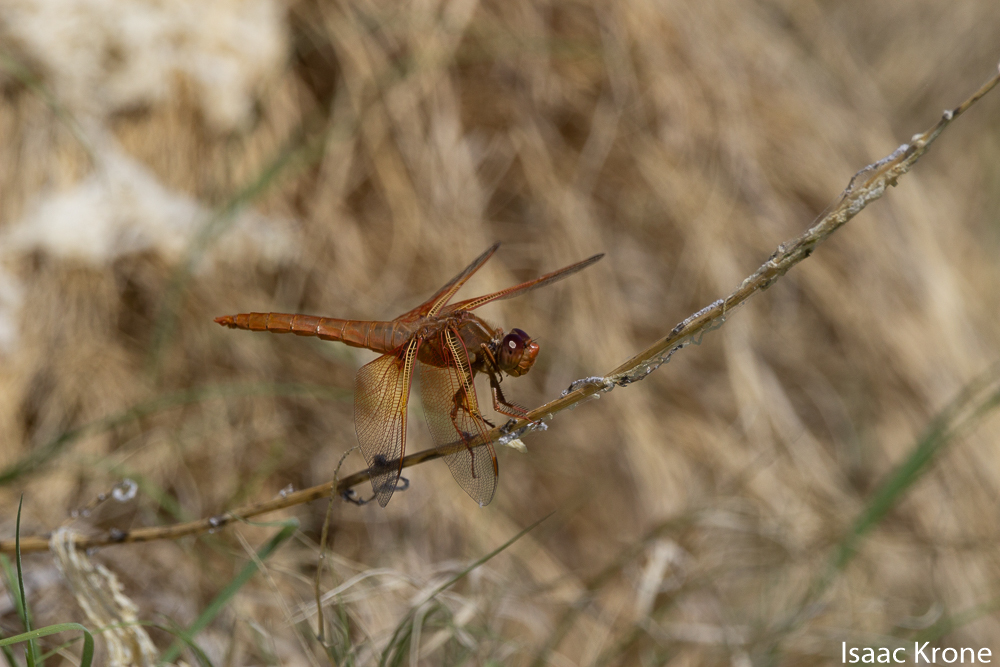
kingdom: Animalia
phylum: Arthropoda
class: Insecta
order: Odonata
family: Libellulidae
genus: Libellula
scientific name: Libellula saturata
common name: Flame skimmer
